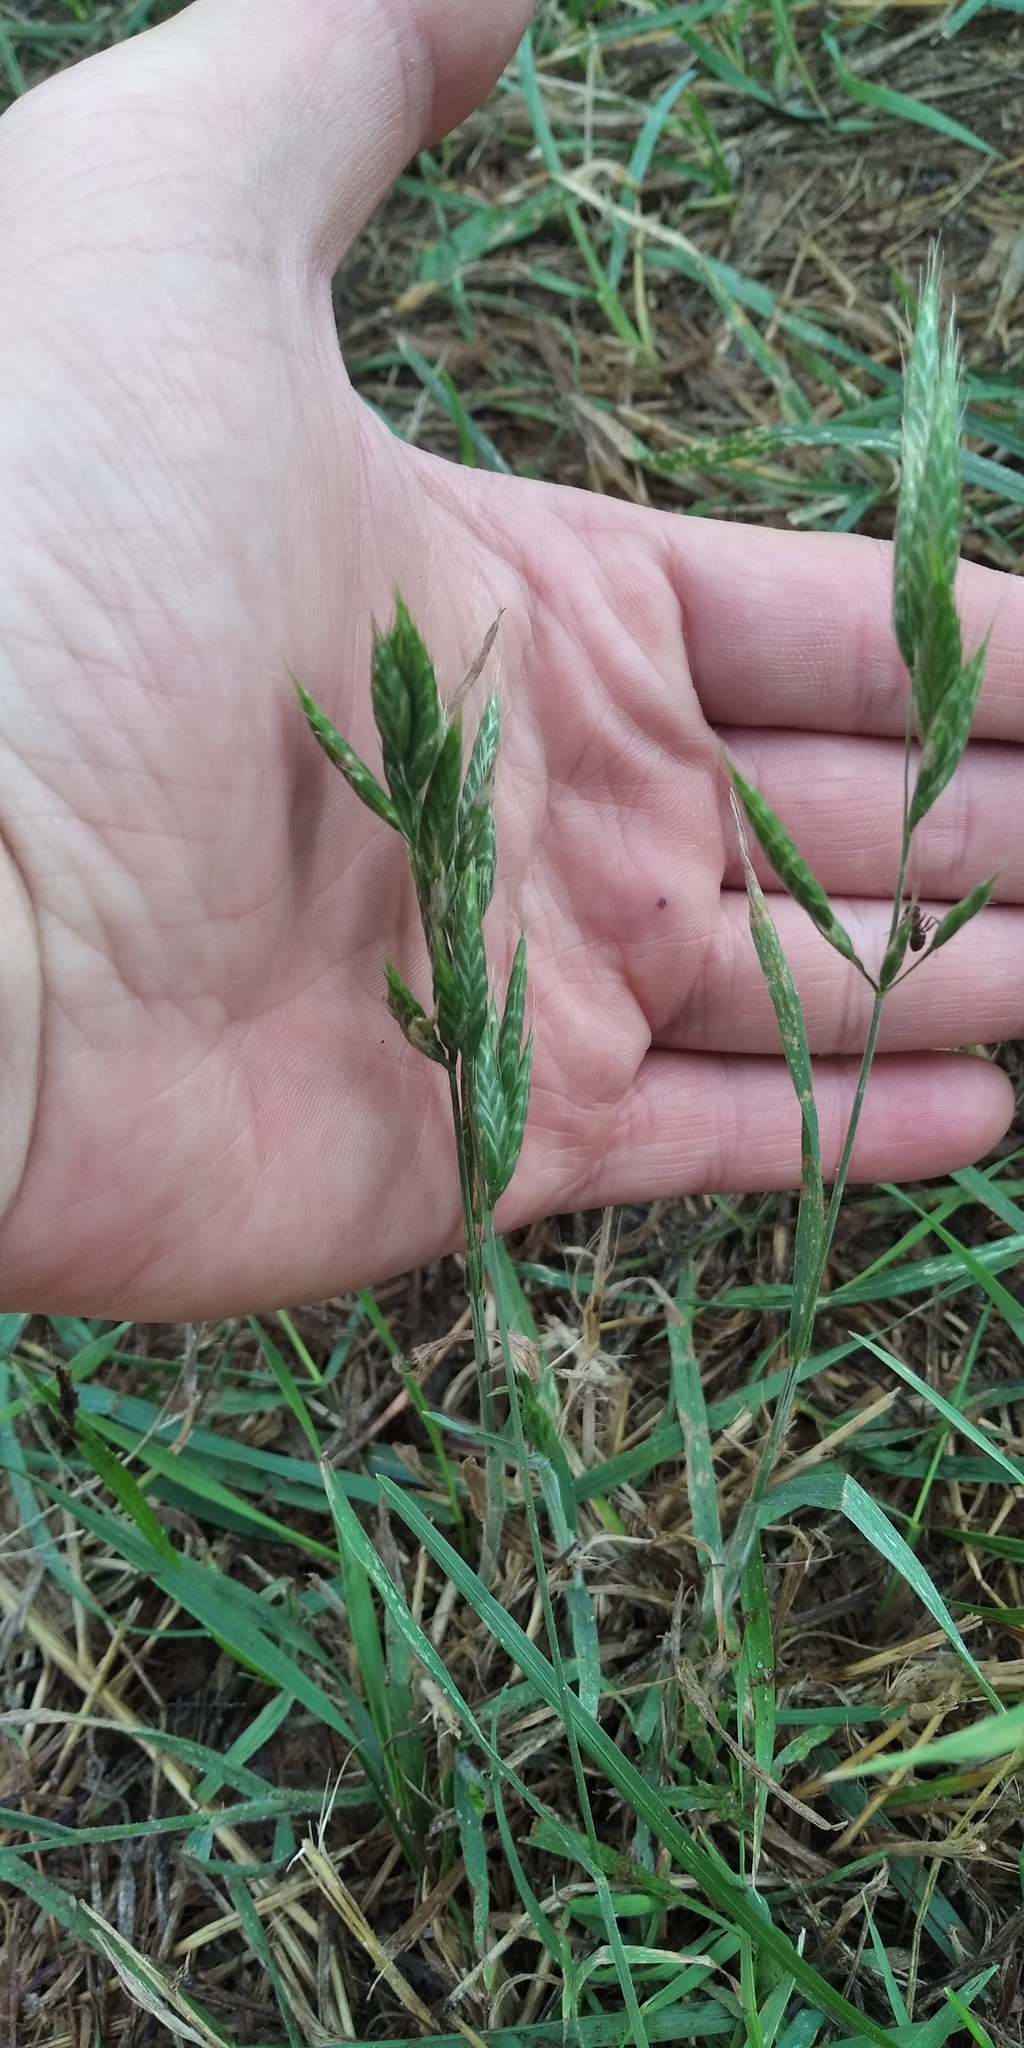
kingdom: Plantae
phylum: Tracheophyta
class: Liliopsida
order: Poales
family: Poaceae
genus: Bromus
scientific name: Bromus hordeaceus
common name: Soft brome
